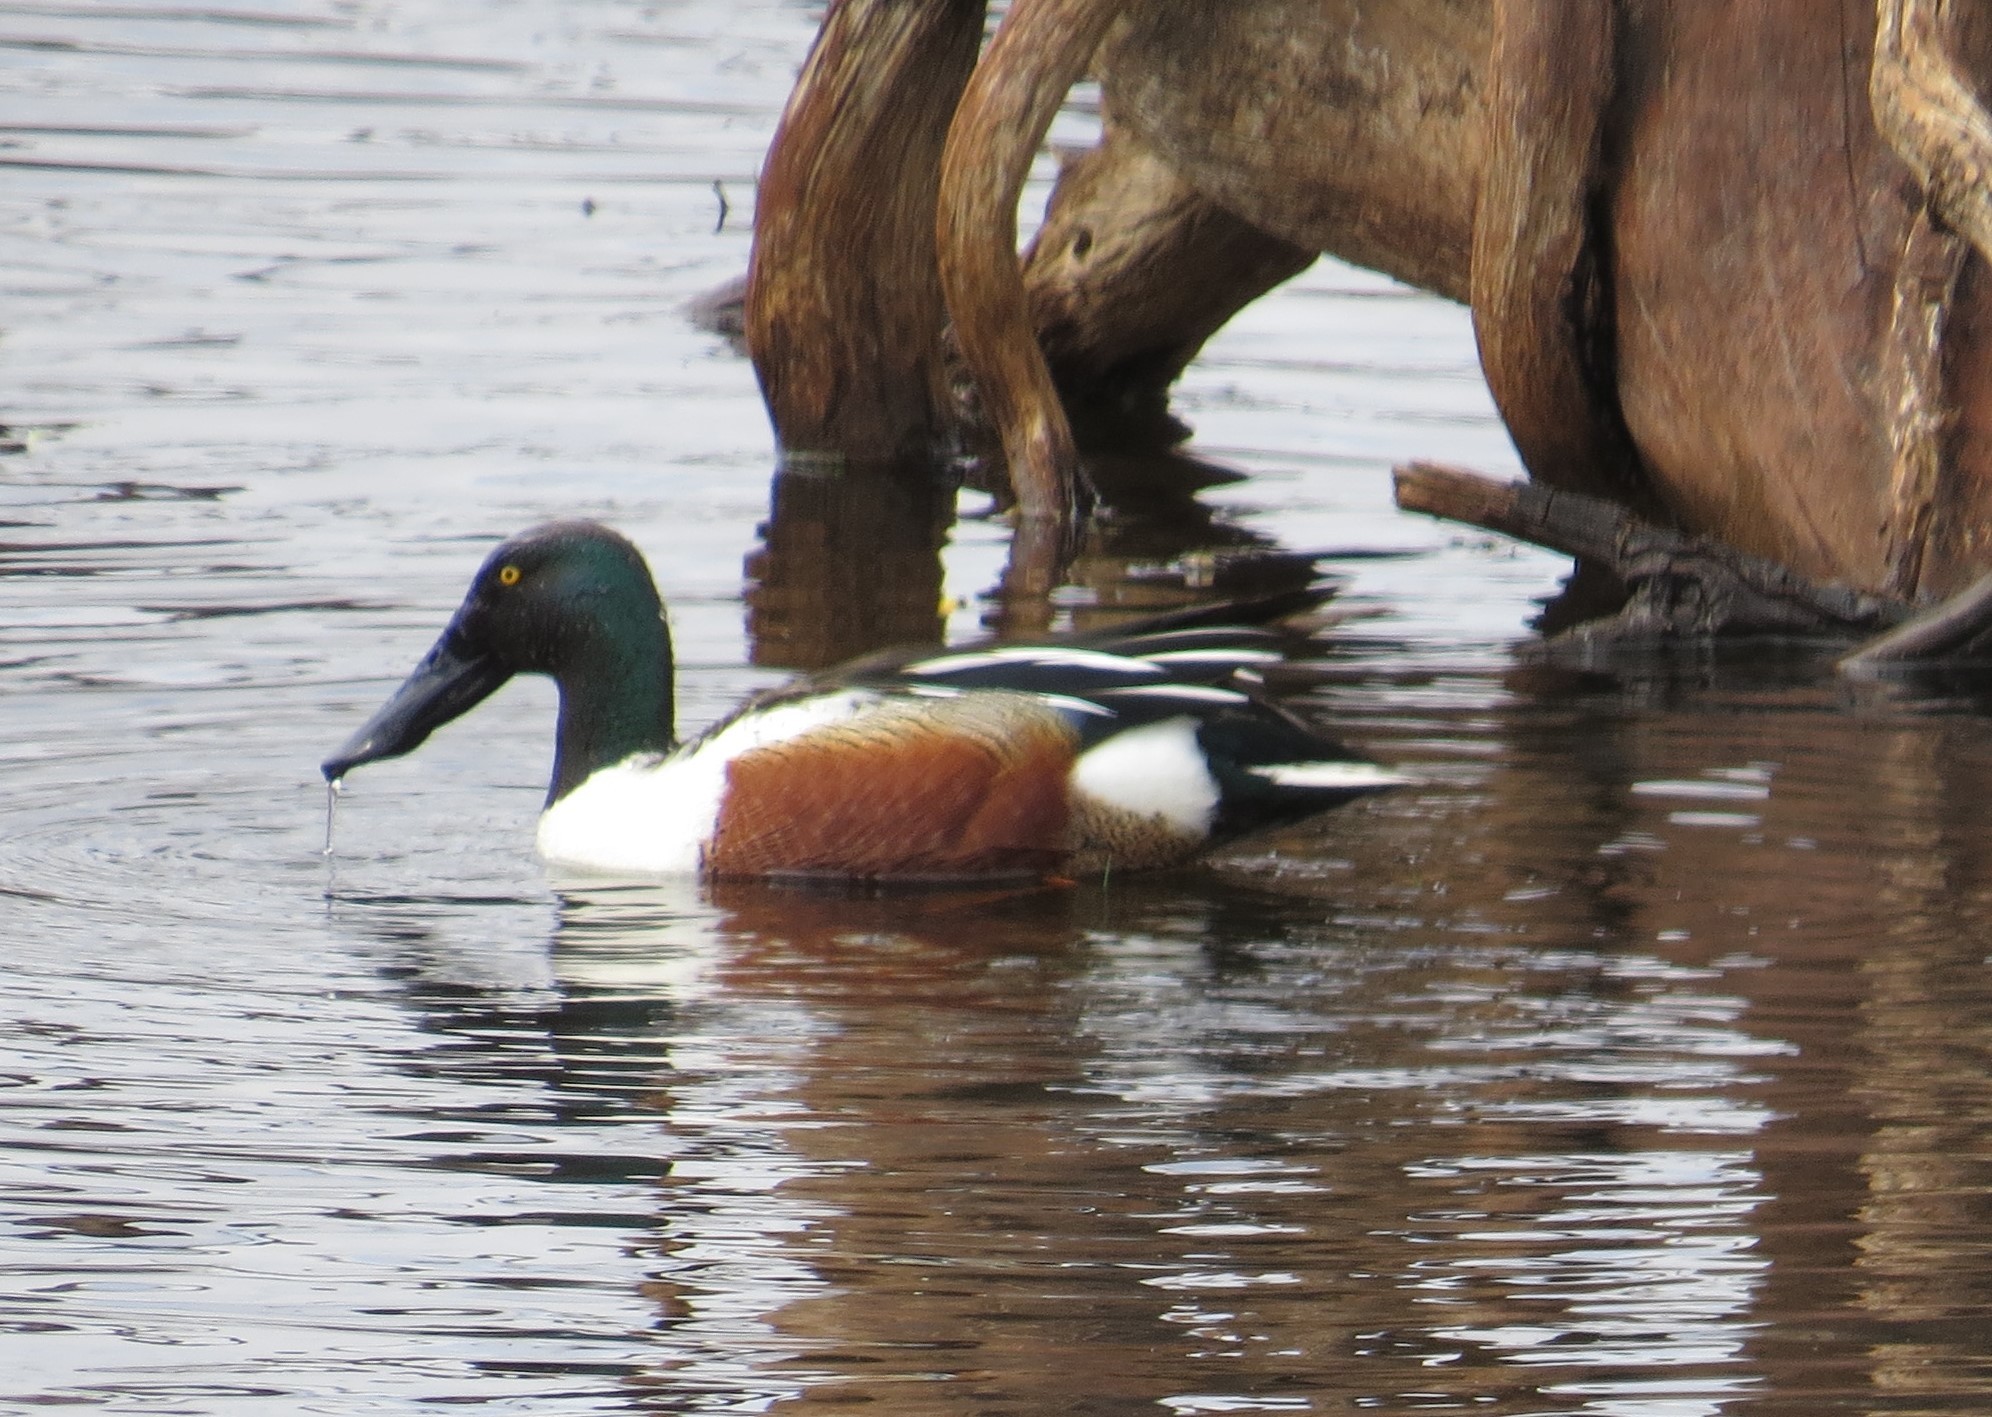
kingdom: Animalia
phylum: Chordata
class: Aves
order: Anseriformes
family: Anatidae
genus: Spatula
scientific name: Spatula clypeata
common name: Northern shoveler
